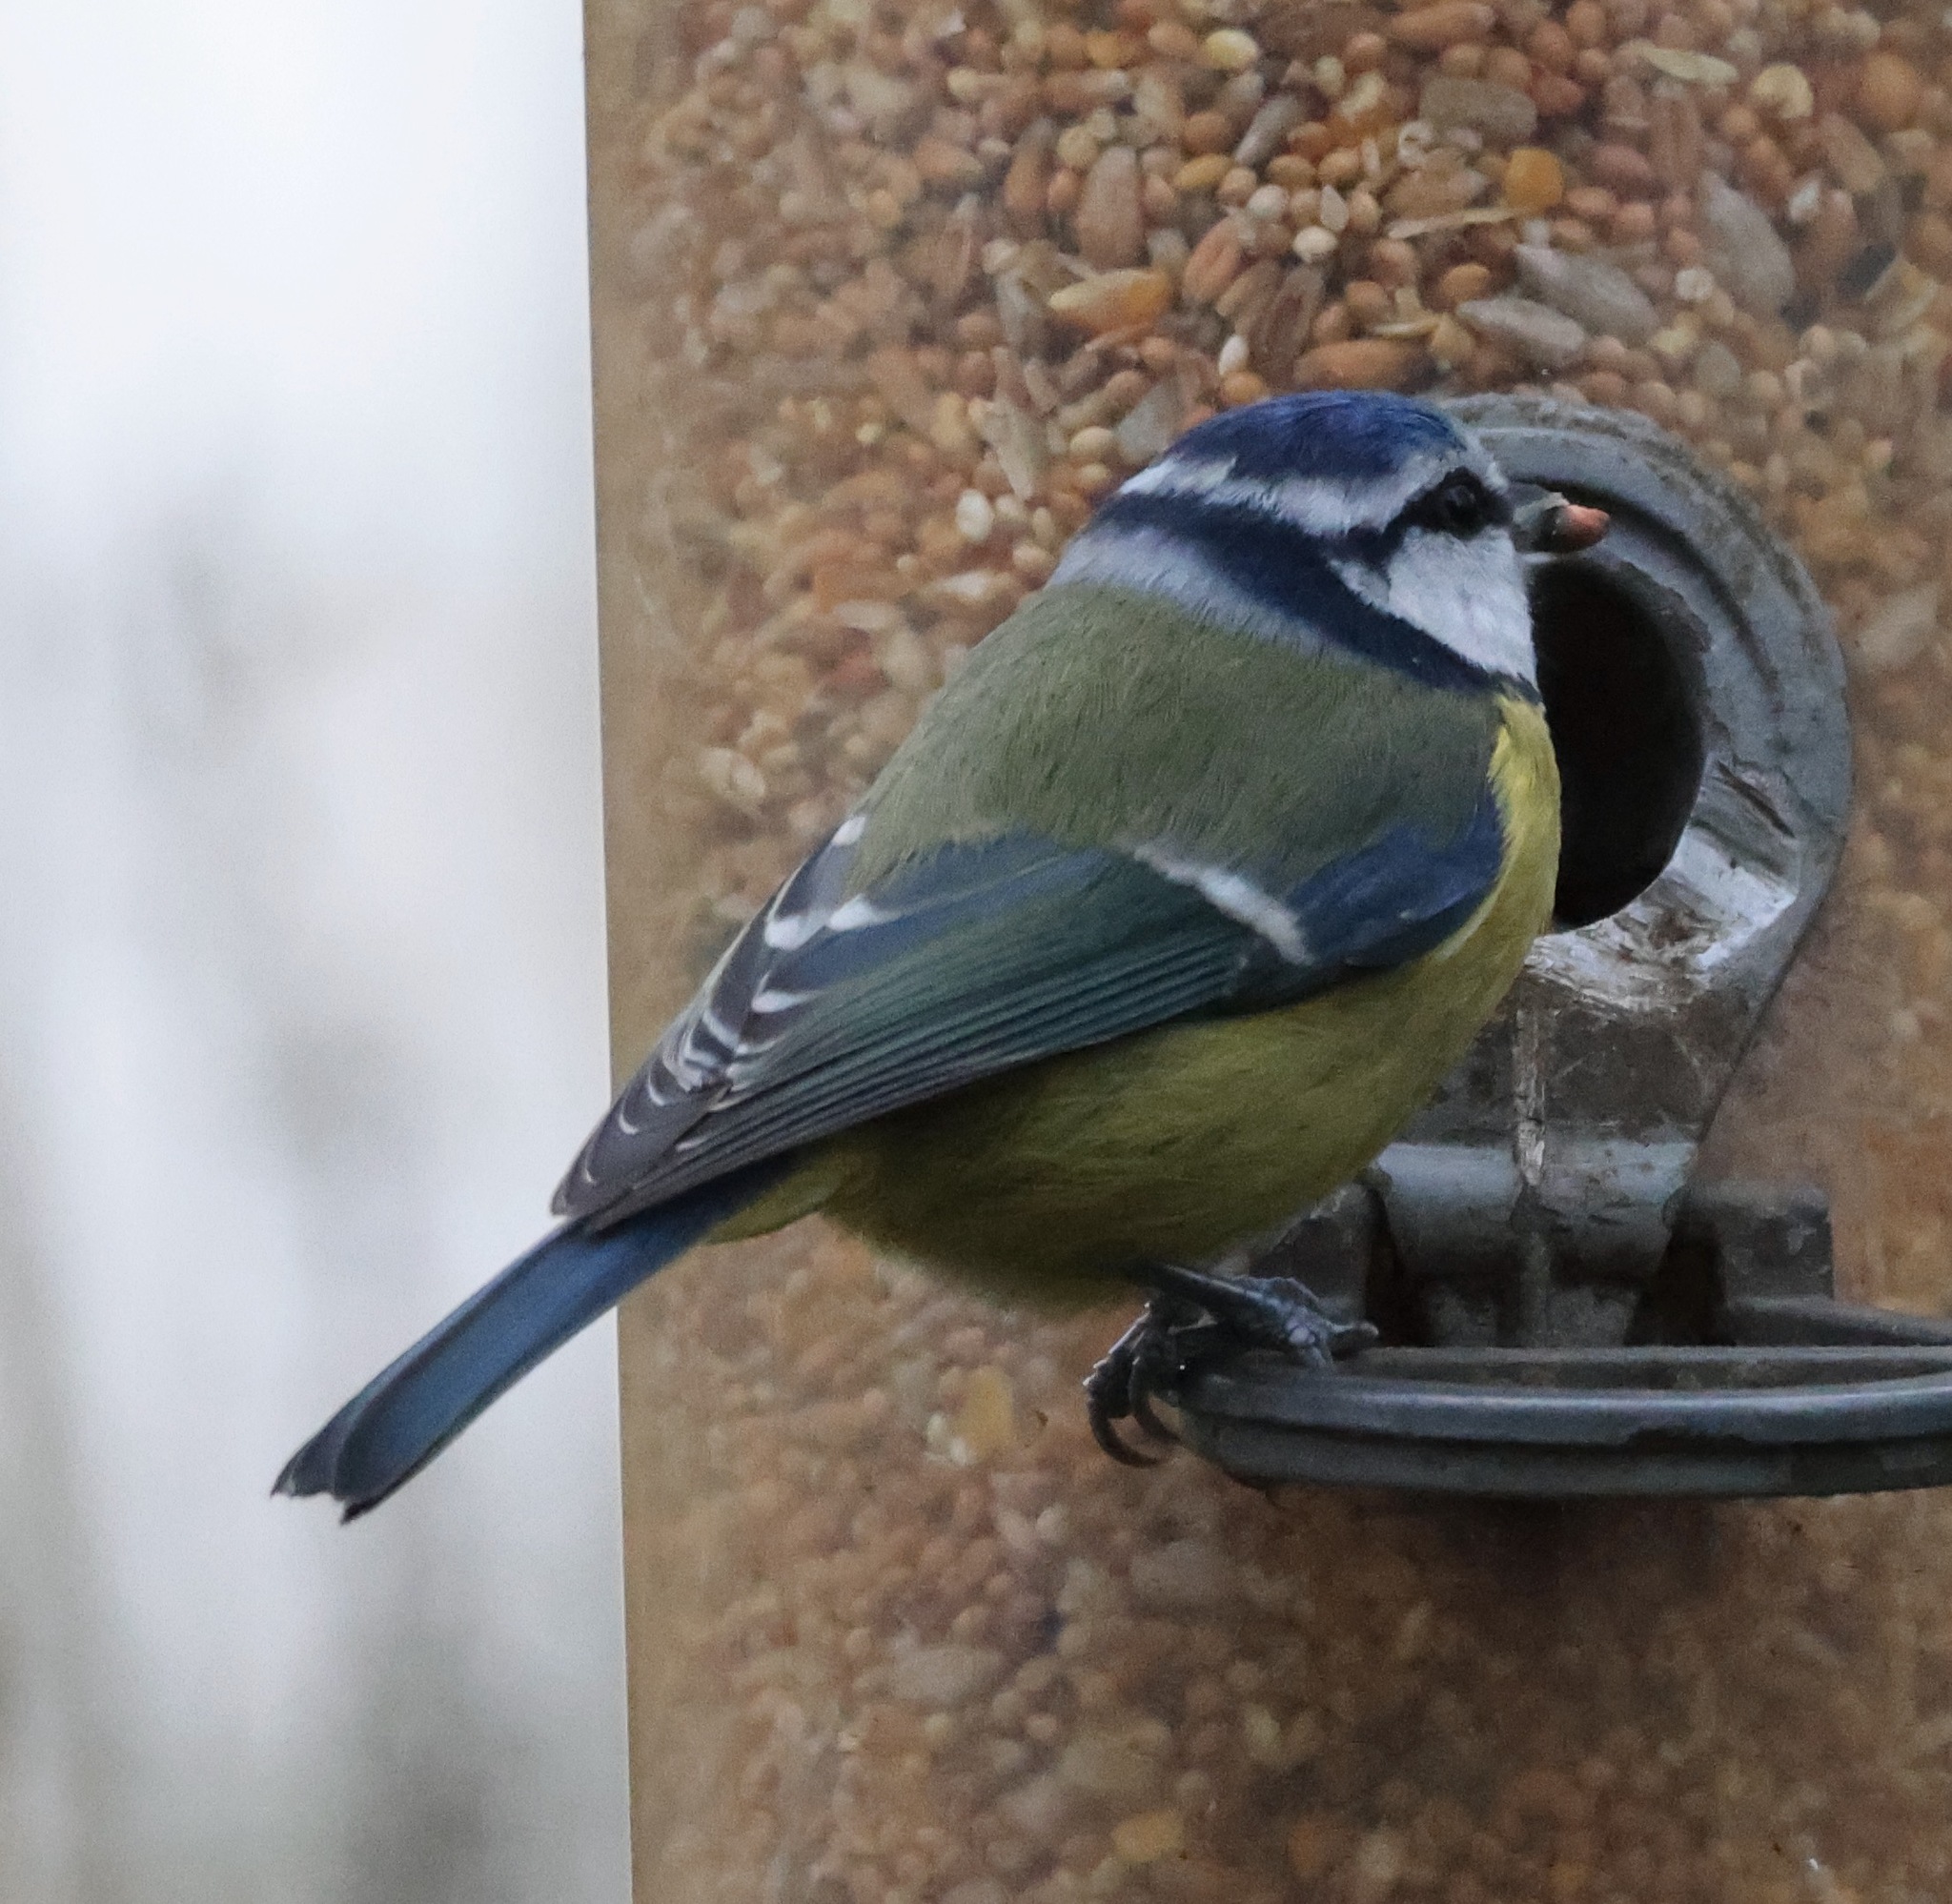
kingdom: Animalia
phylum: Chordata
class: Aves
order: Passeriformes
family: Paridae
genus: Cyanistes
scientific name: Cyanistes caeruleus
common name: Eurasian blue tit
